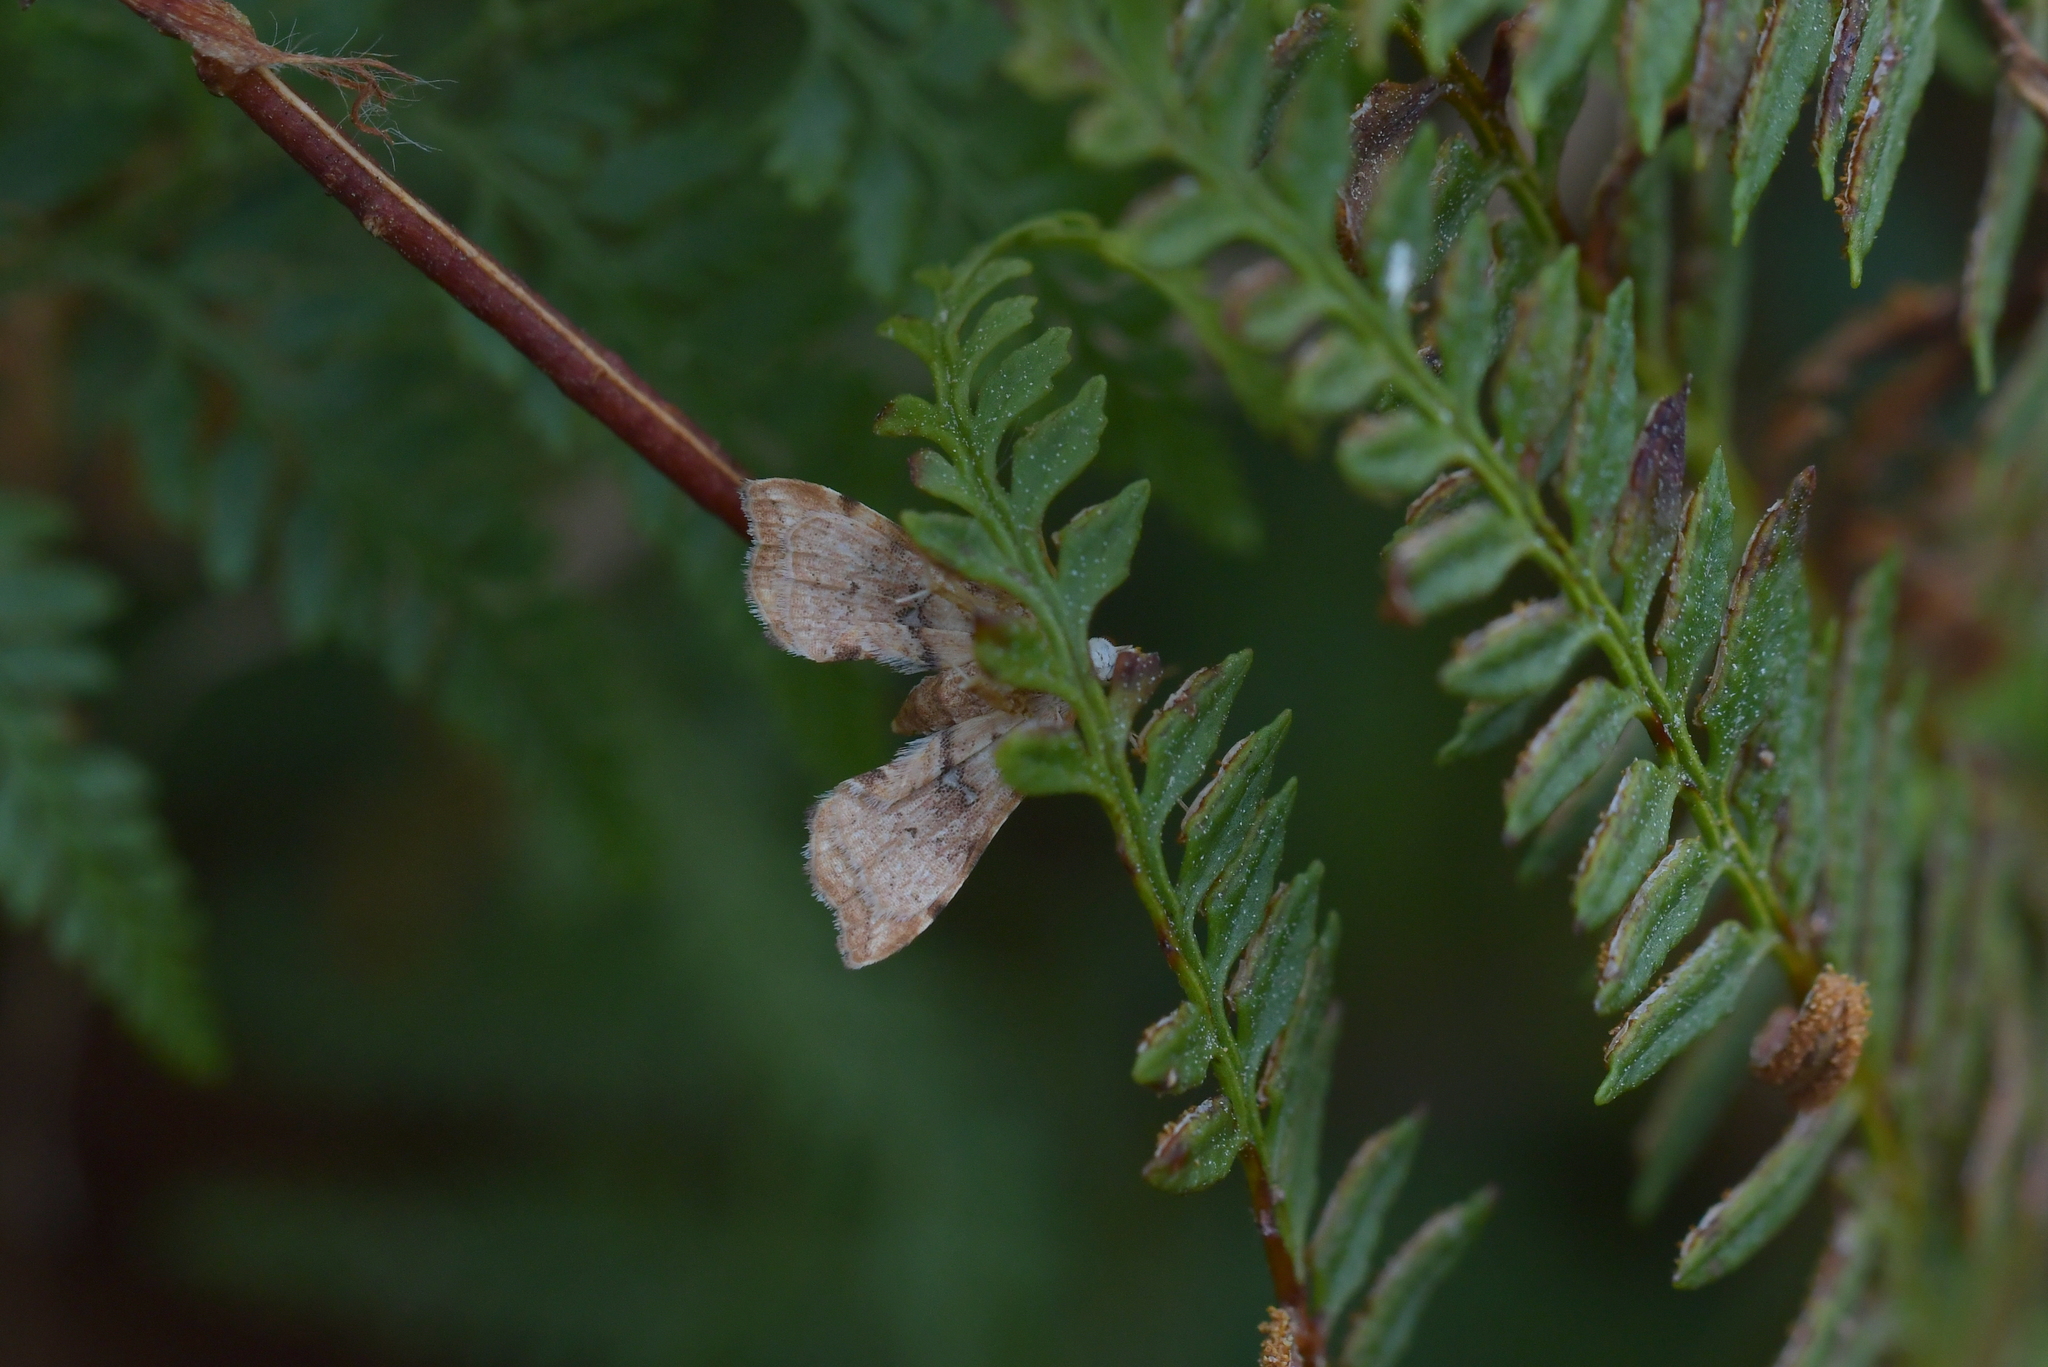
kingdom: Animalia
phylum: Arthropoda
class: Insecta
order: Lepidoptera
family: Pyralidae
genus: Musotima
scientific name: Musotima nitidalis
